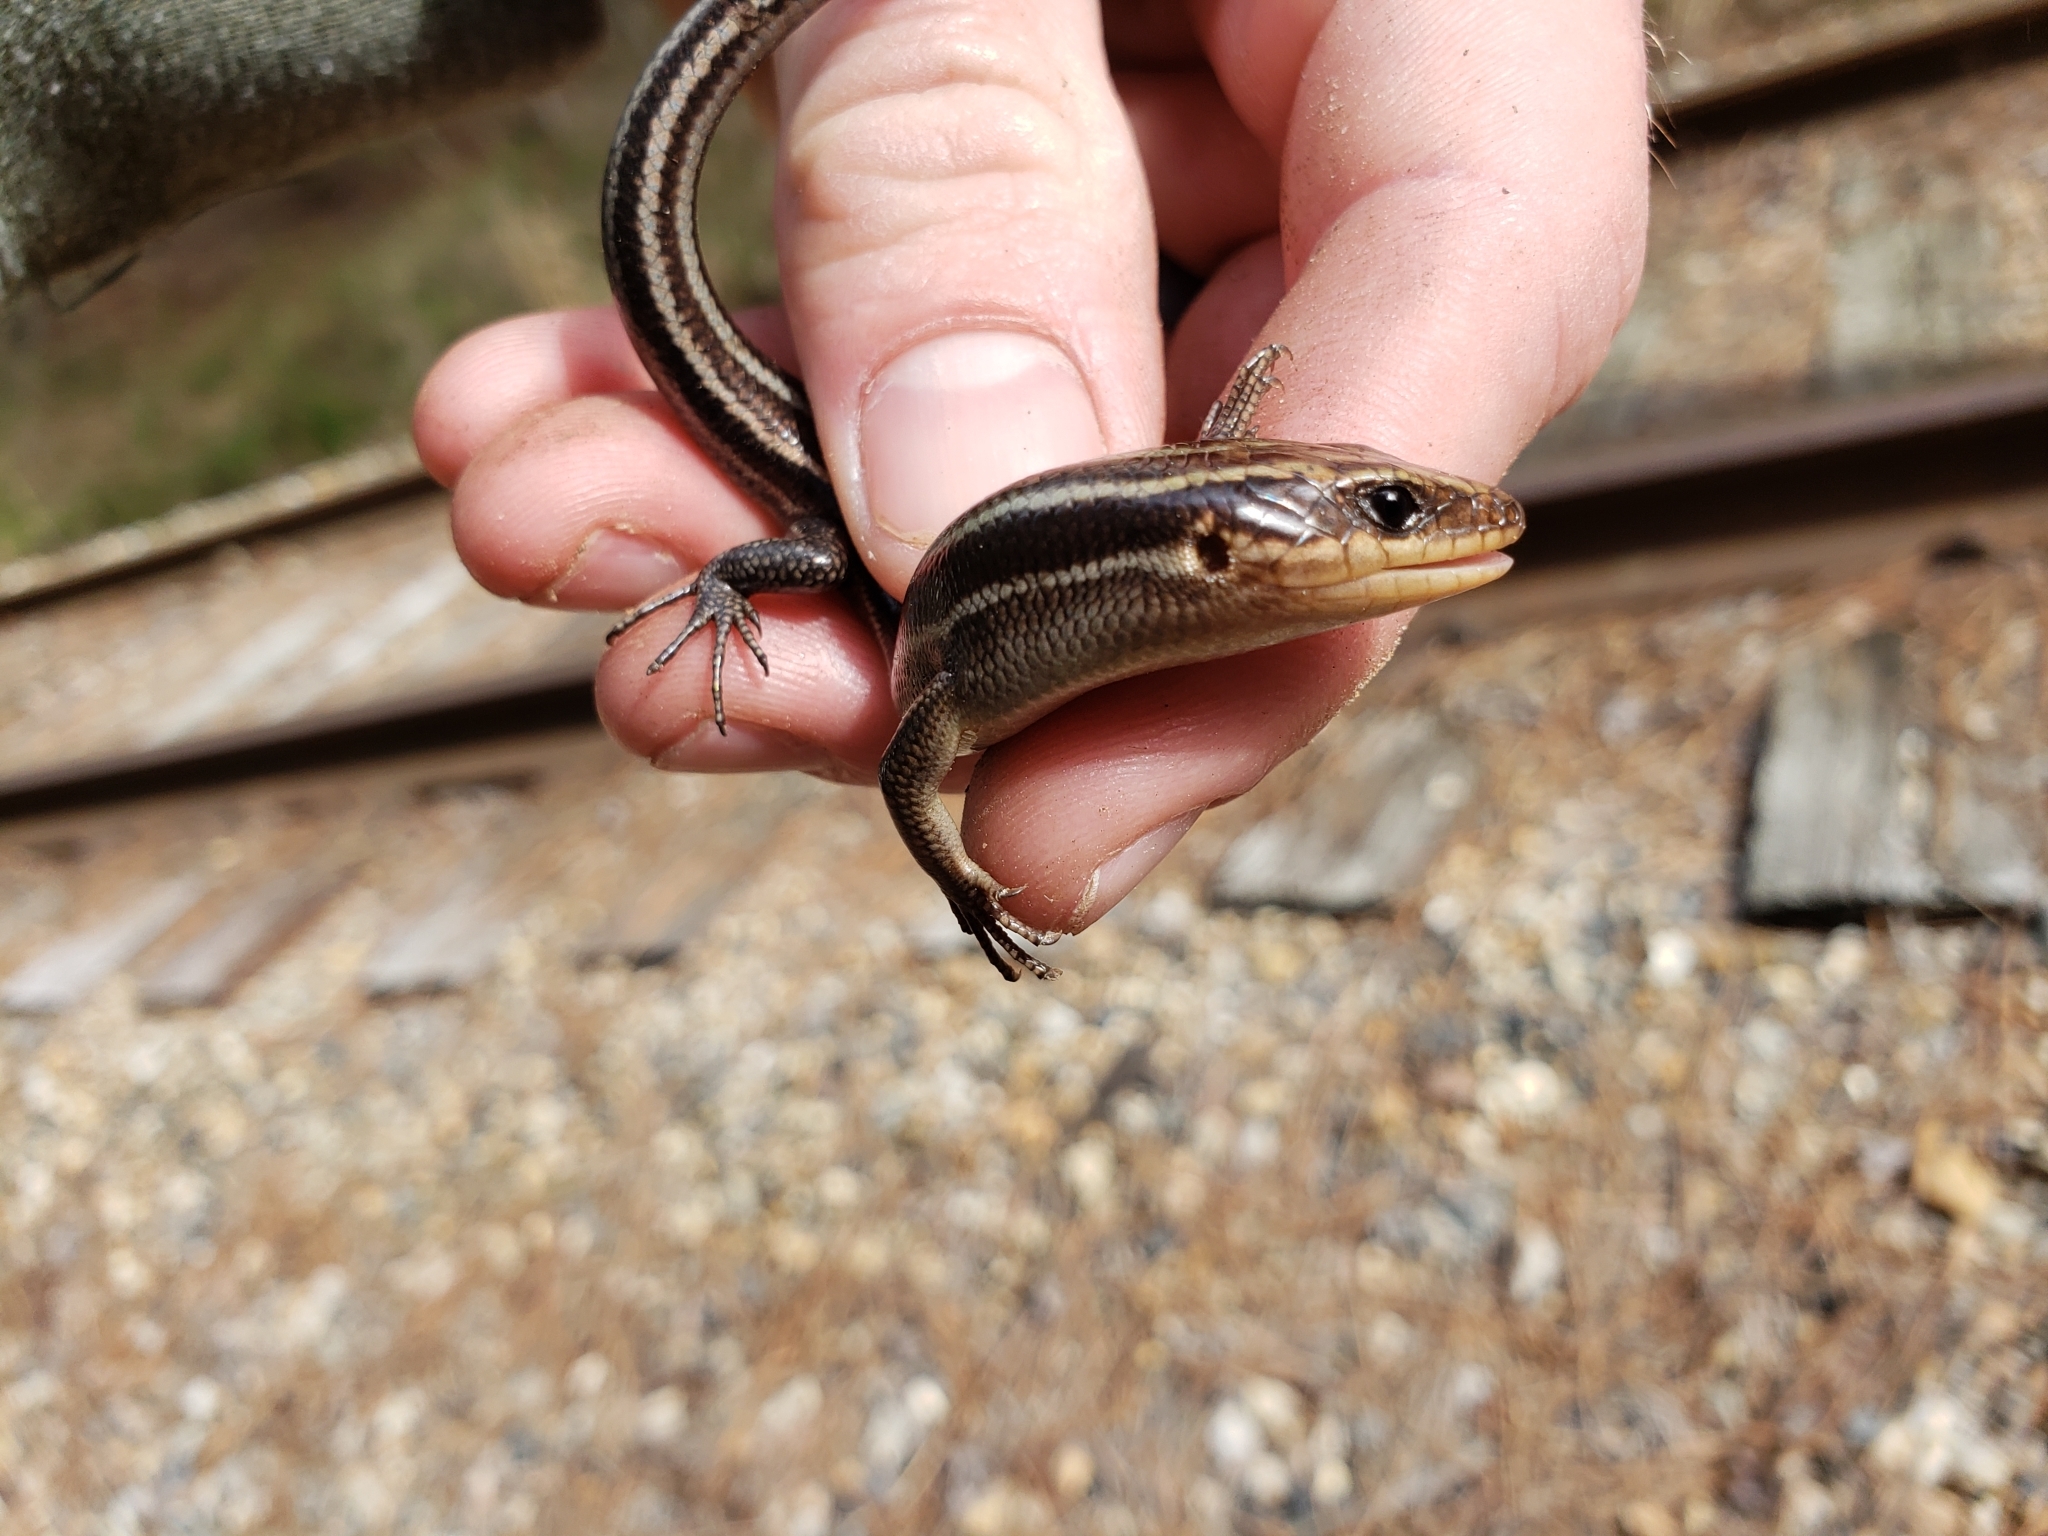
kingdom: Animalia
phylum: Chordata
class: Squamata
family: Scincidae
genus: Plestiodon
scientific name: Plestiodon fasciatus
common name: Five-lined skink
